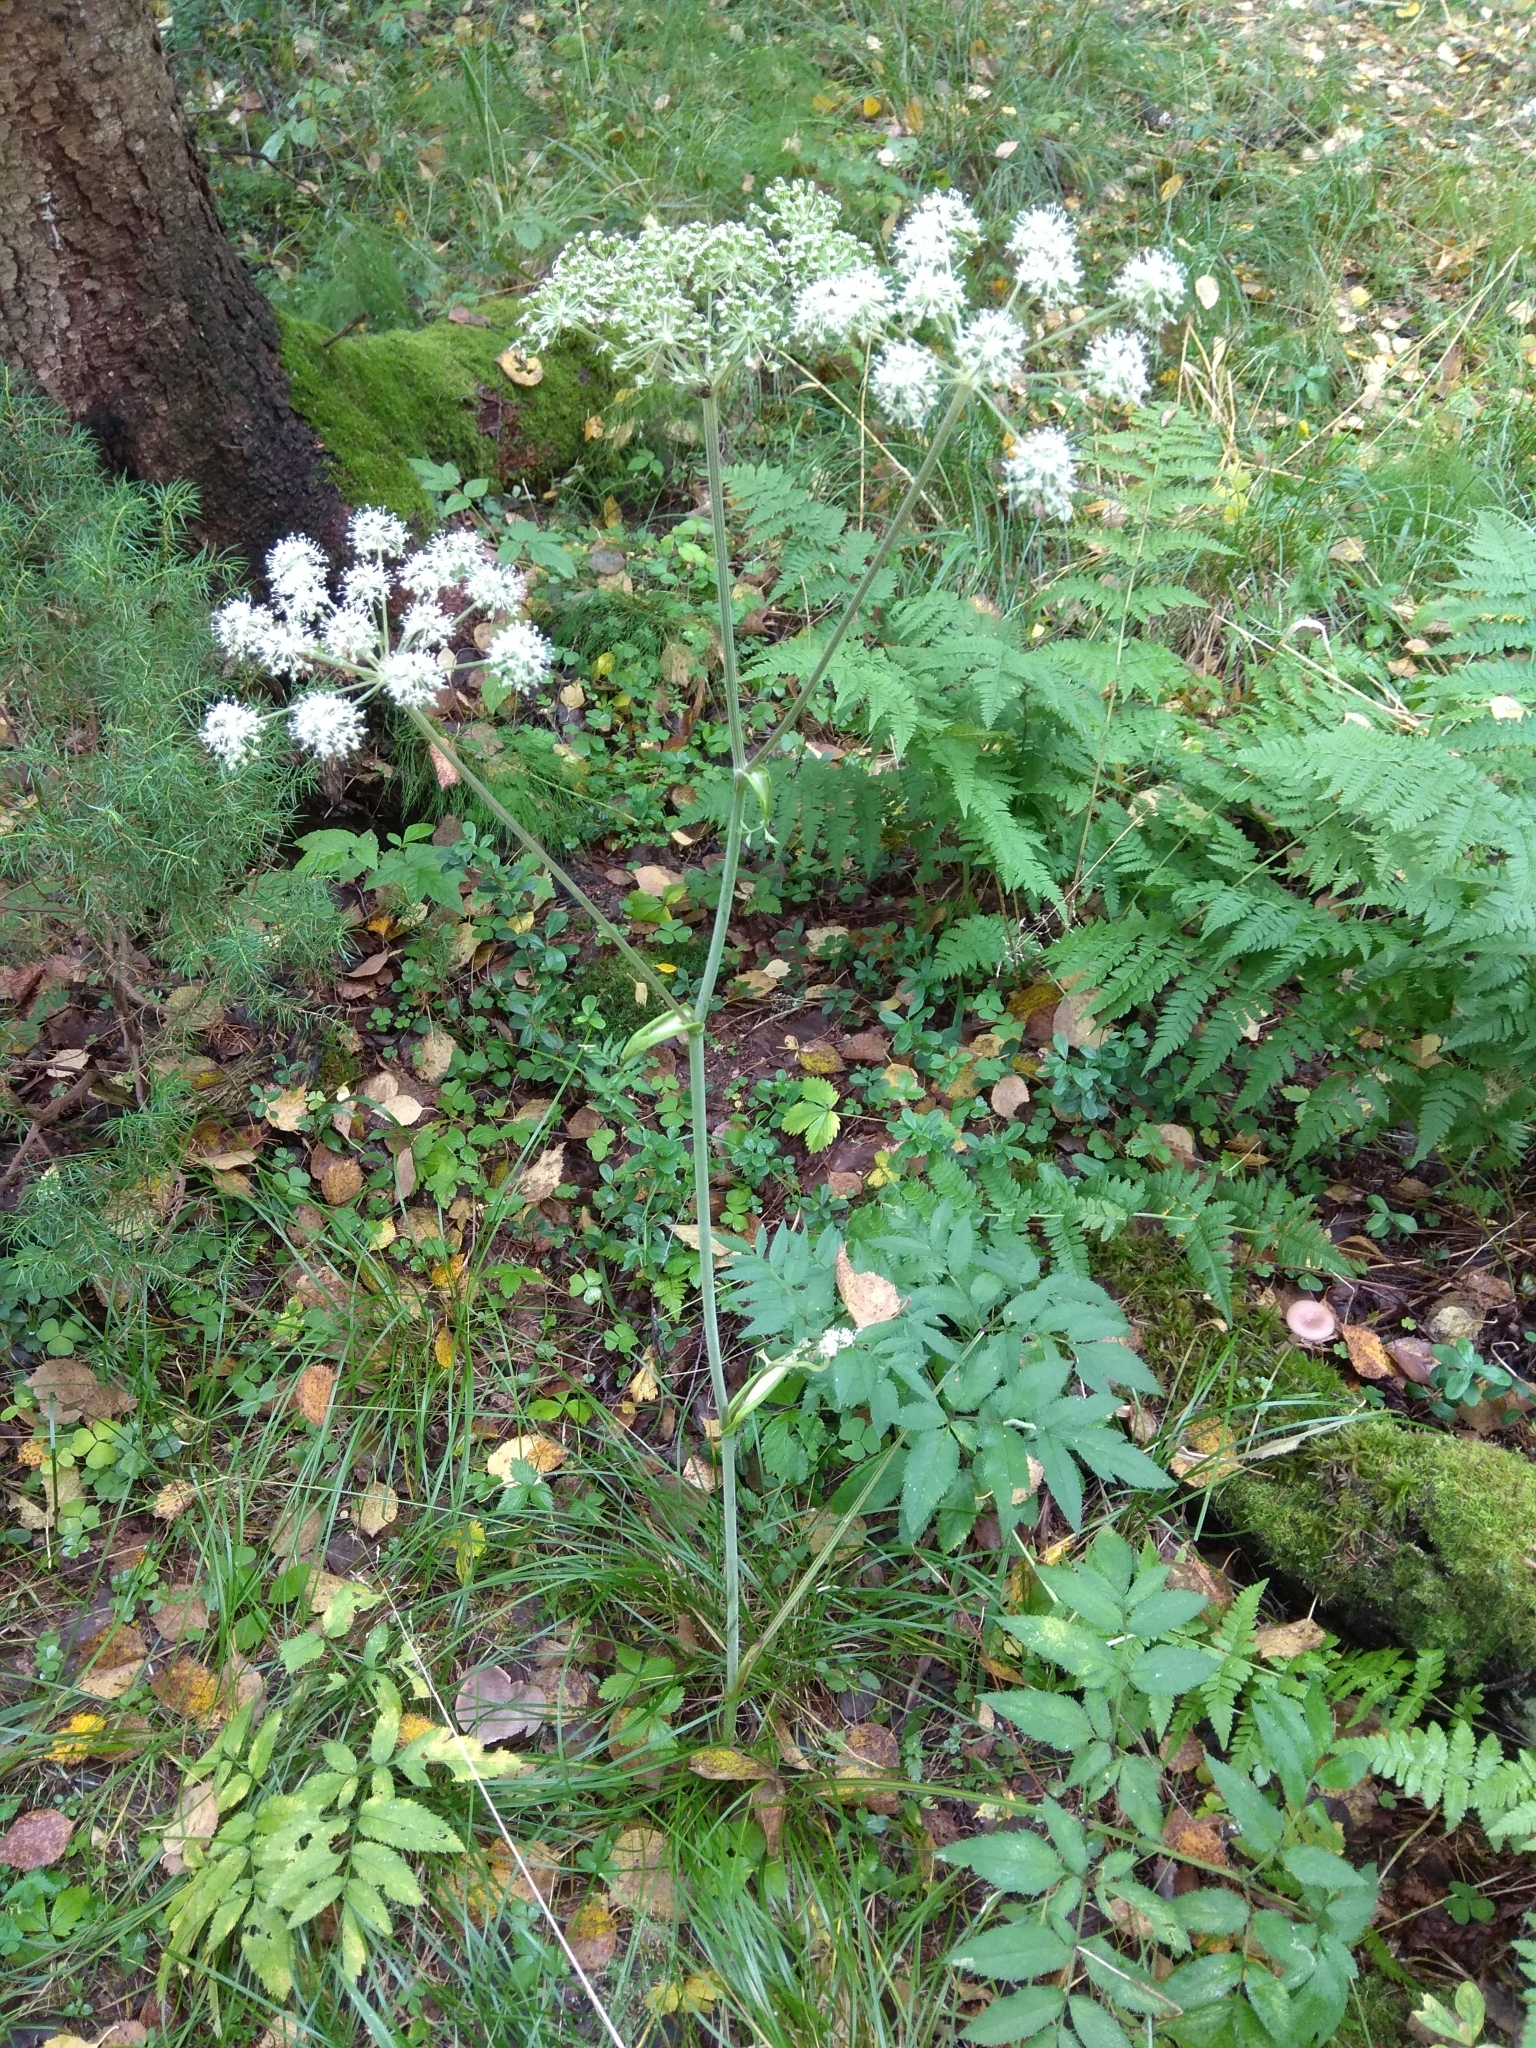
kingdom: Plantae
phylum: Tracheophyta
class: Magnoliopsida
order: Apiales
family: Apiaceae
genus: Angelica
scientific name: Angelica sylvestris
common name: Wild angelica
